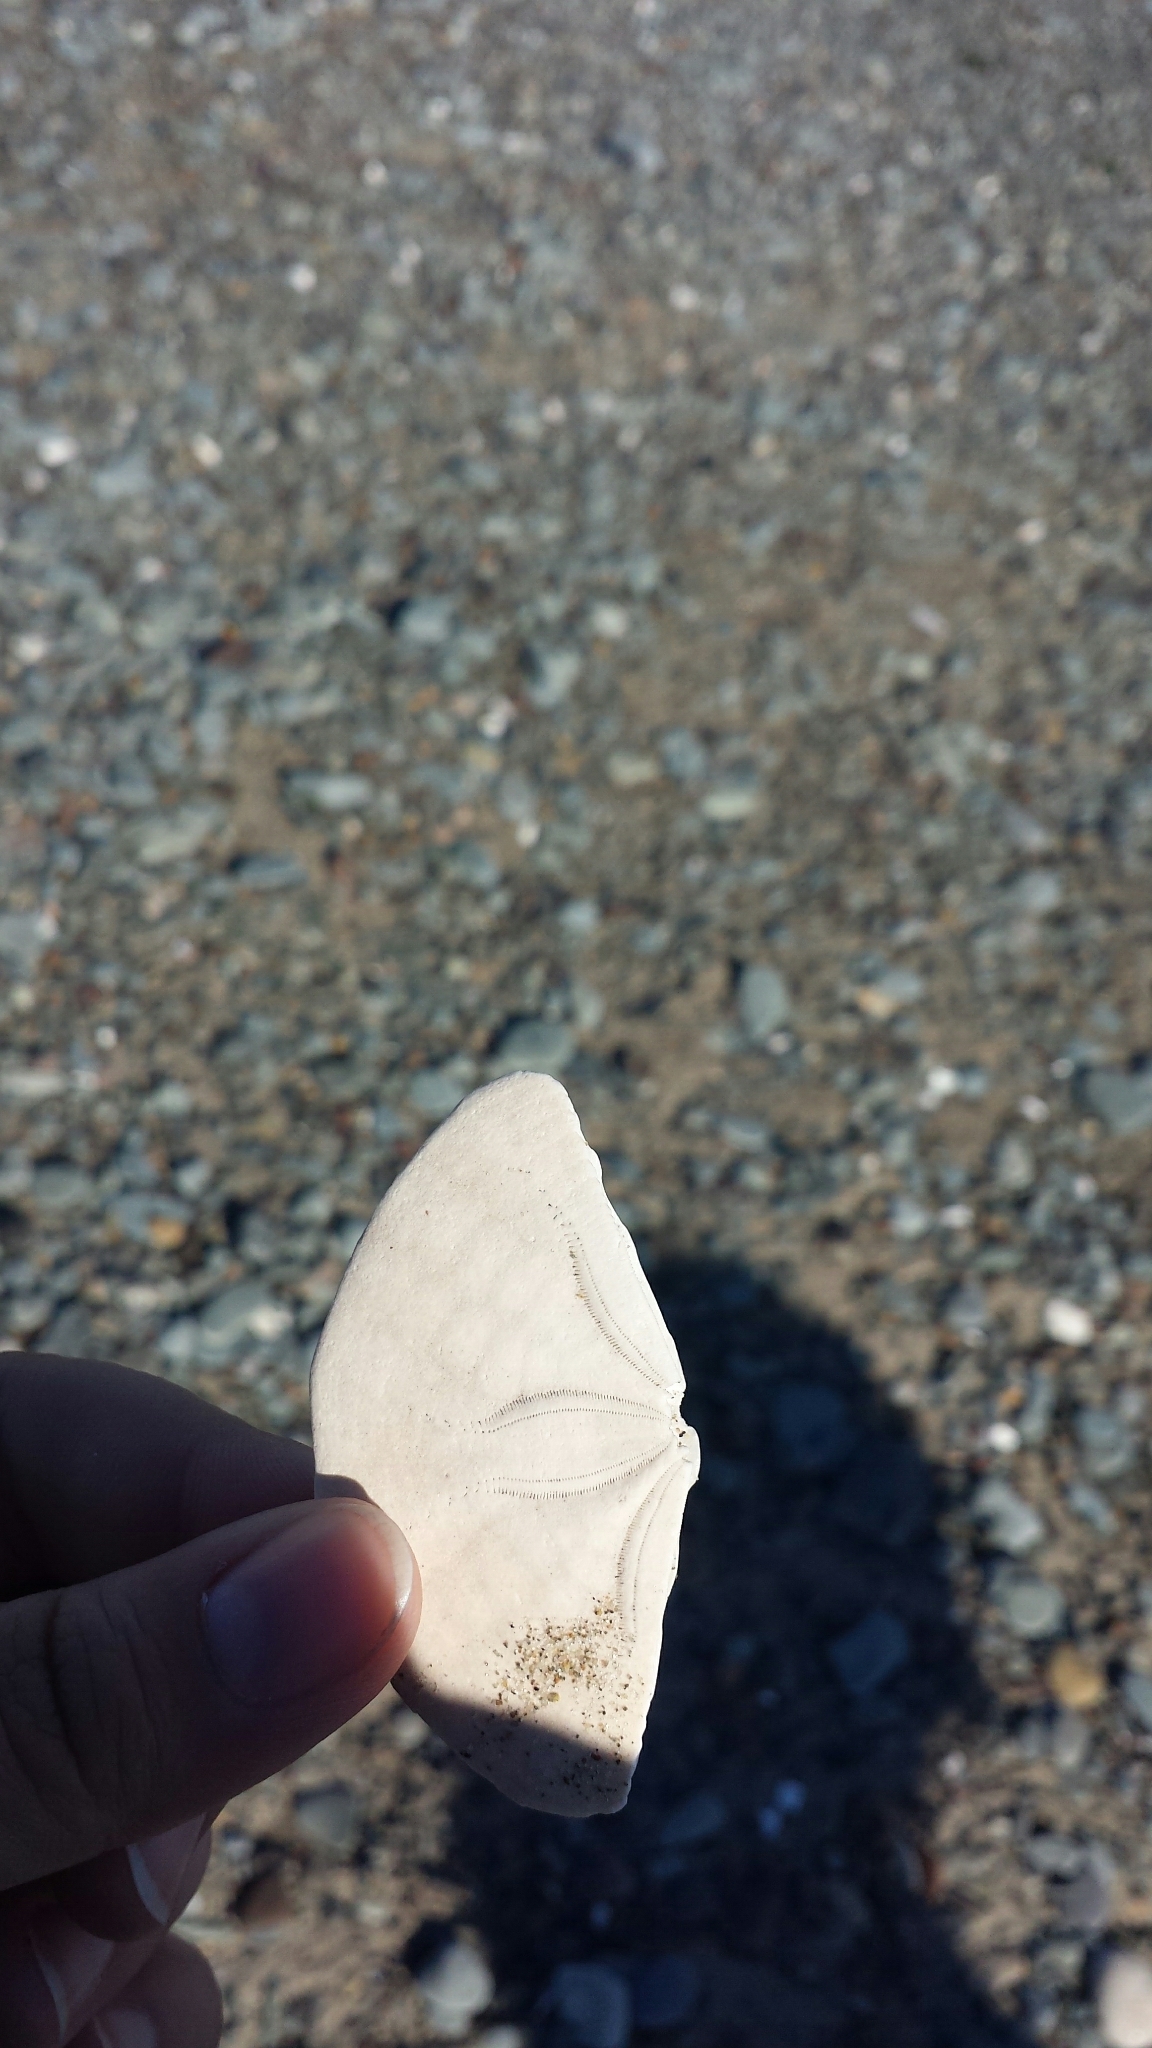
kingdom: Animalia
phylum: Echinodermata
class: Echinoidea
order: Echinolampadacea
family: Echinarachniidae
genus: Echinarachnius
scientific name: Echinarachnius parma
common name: Common sand dollar
